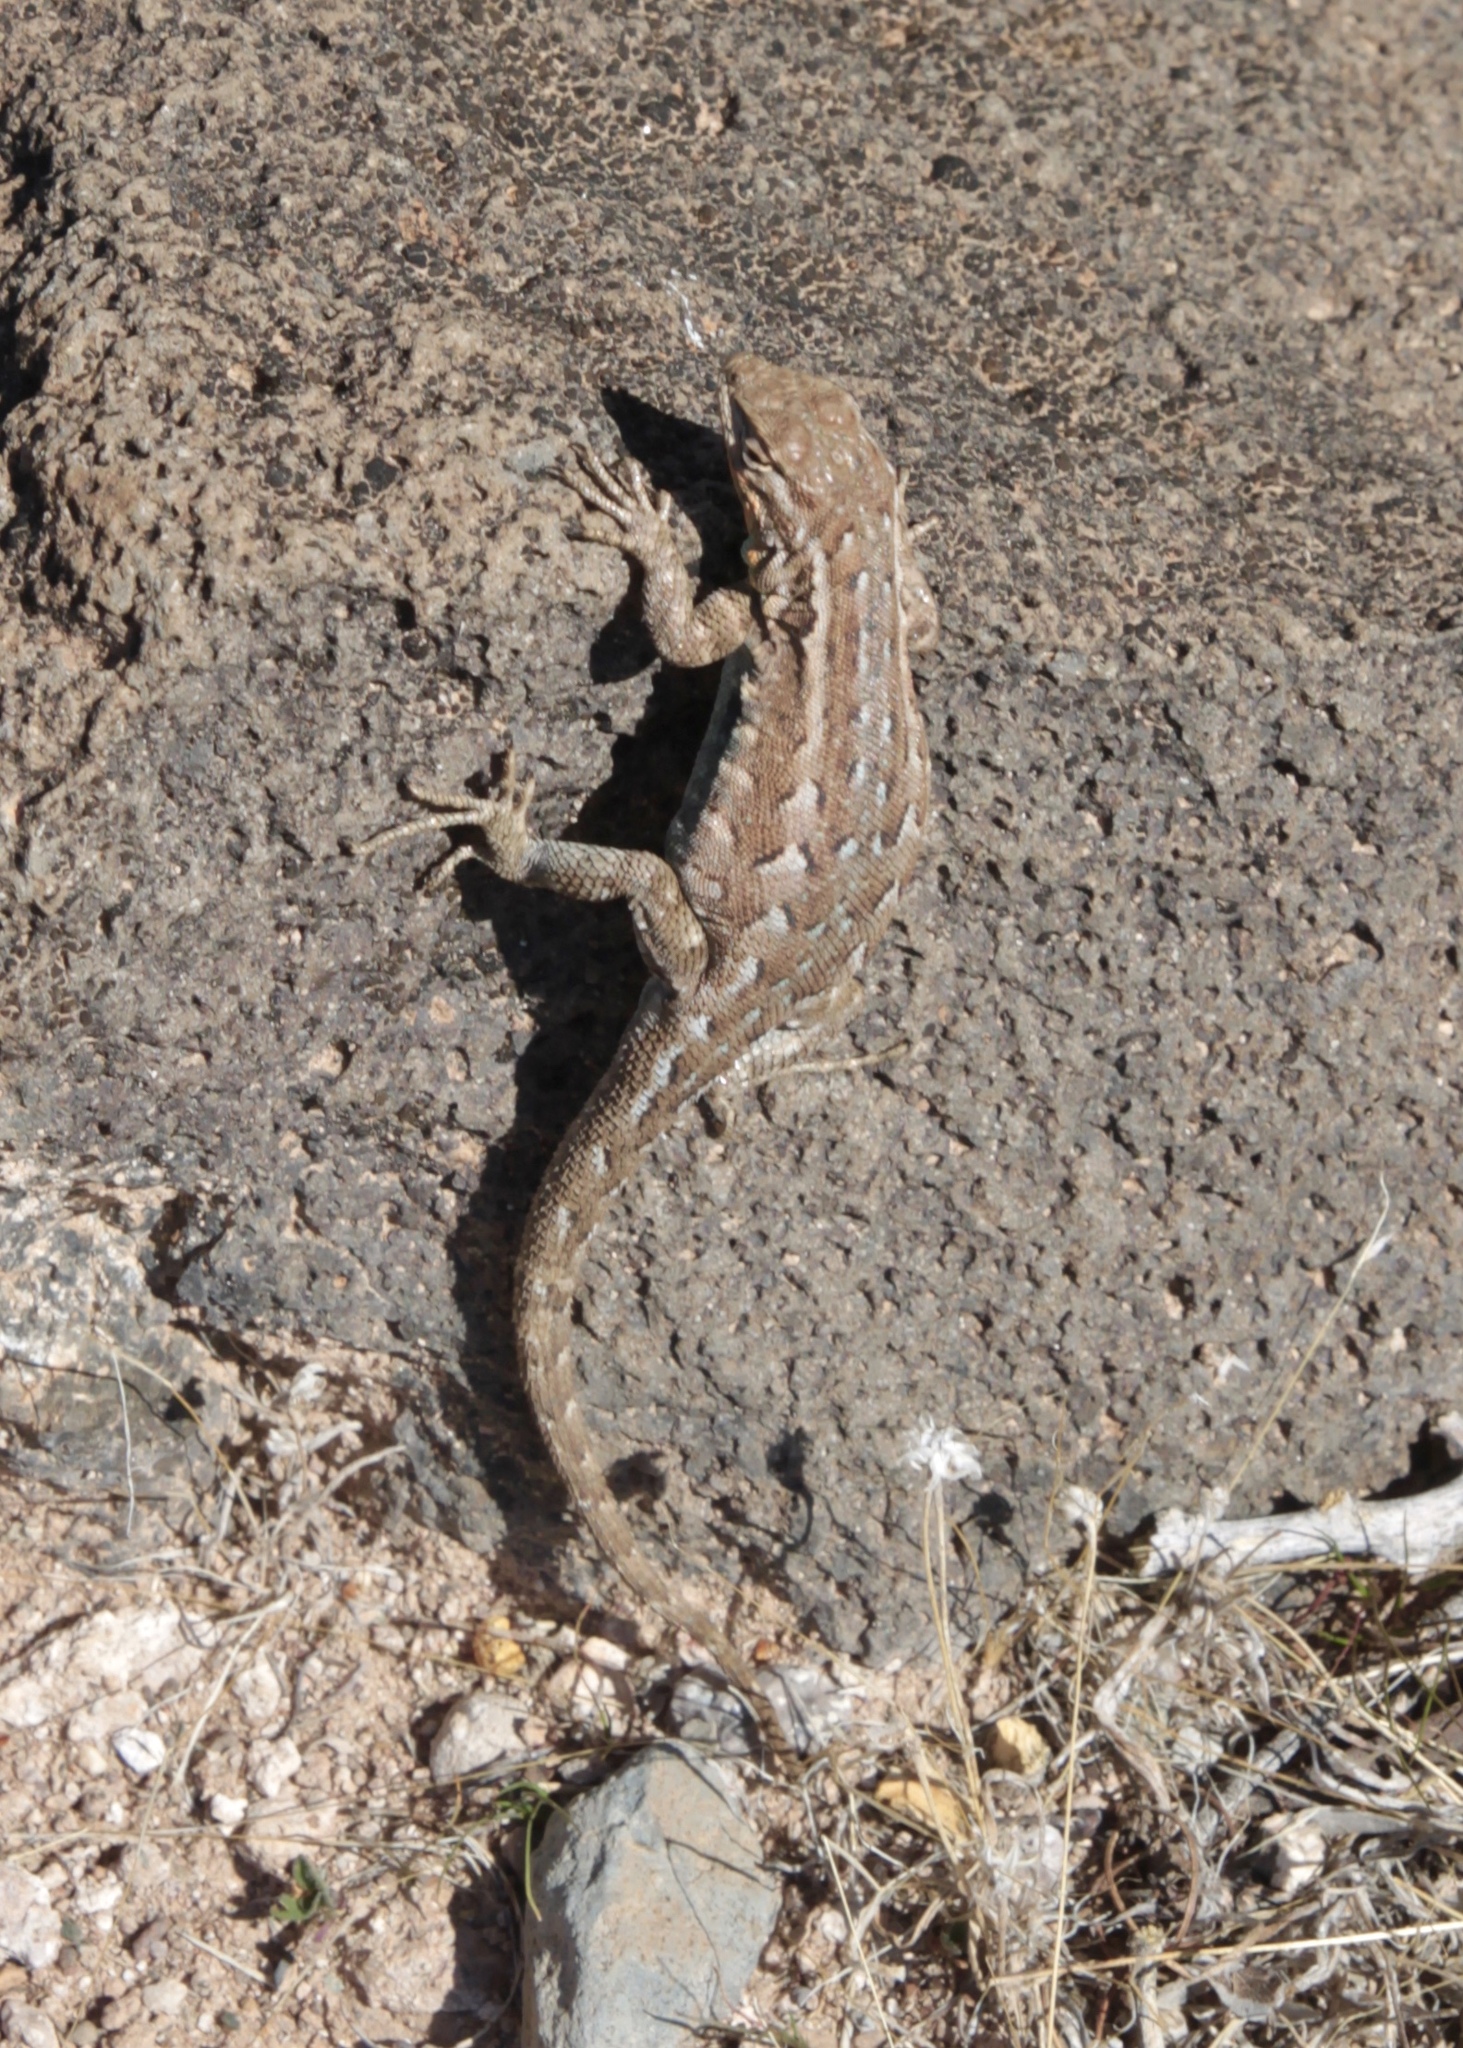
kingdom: Animalia
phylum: Chordata
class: Squamata
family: Phrynosomatidae
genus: Uta
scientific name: Uta stansburiana
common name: Side-blotched lizard
